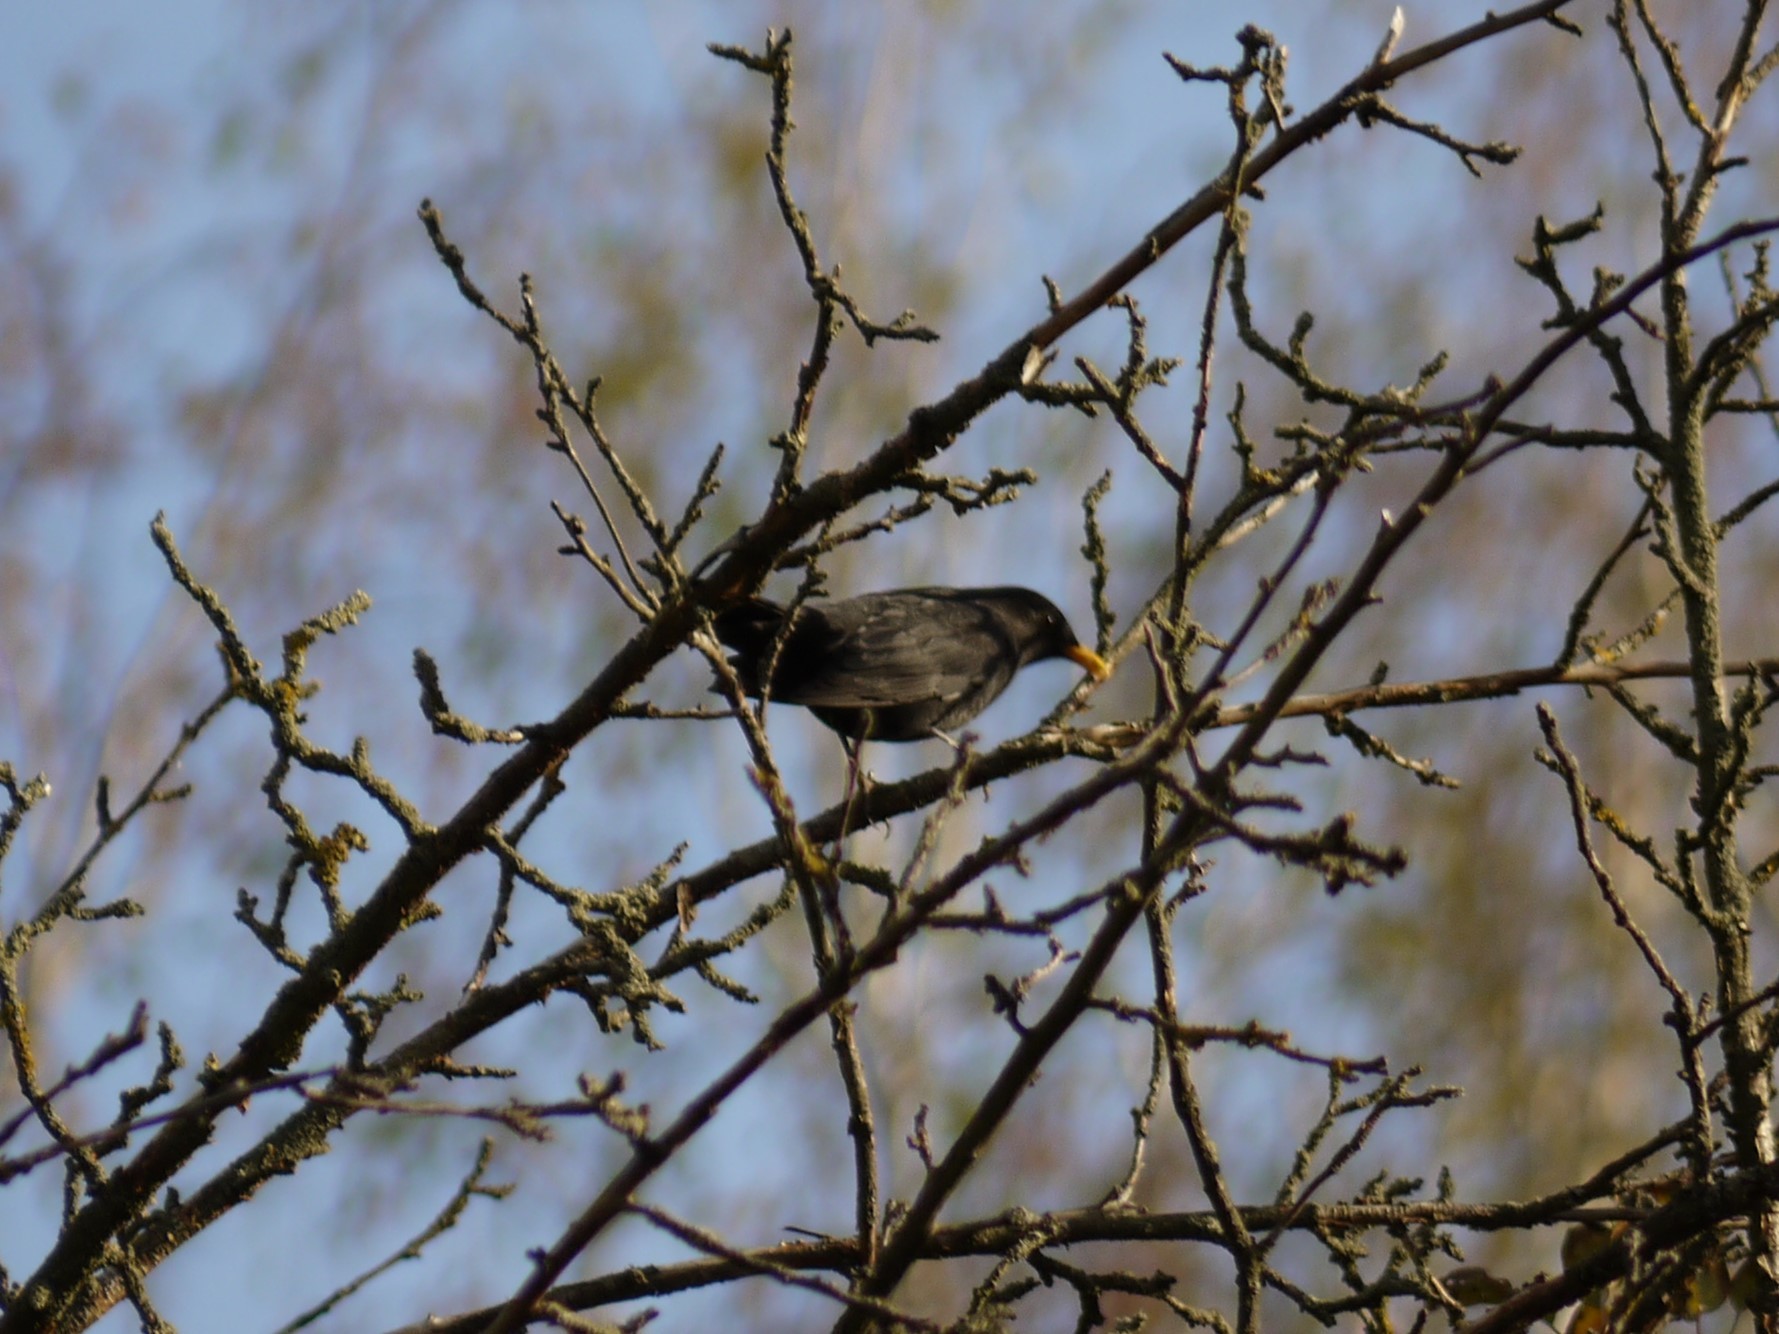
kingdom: Animalia
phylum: Chordata
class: Aves
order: Passeriformes
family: Turdidae
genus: Turdus
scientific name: Turdus merula
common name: Common blackbird
